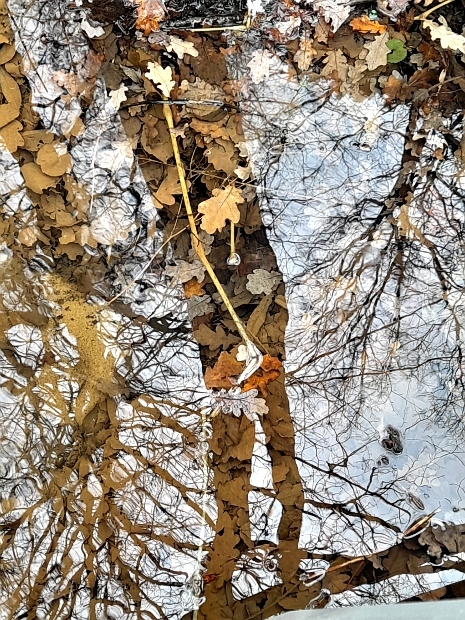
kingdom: Plantae
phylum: Tracheophyta
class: Magnoliopsida
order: Fagales
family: Fagaceae
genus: Quercus
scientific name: Quercus robur
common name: Pedunculate oak
